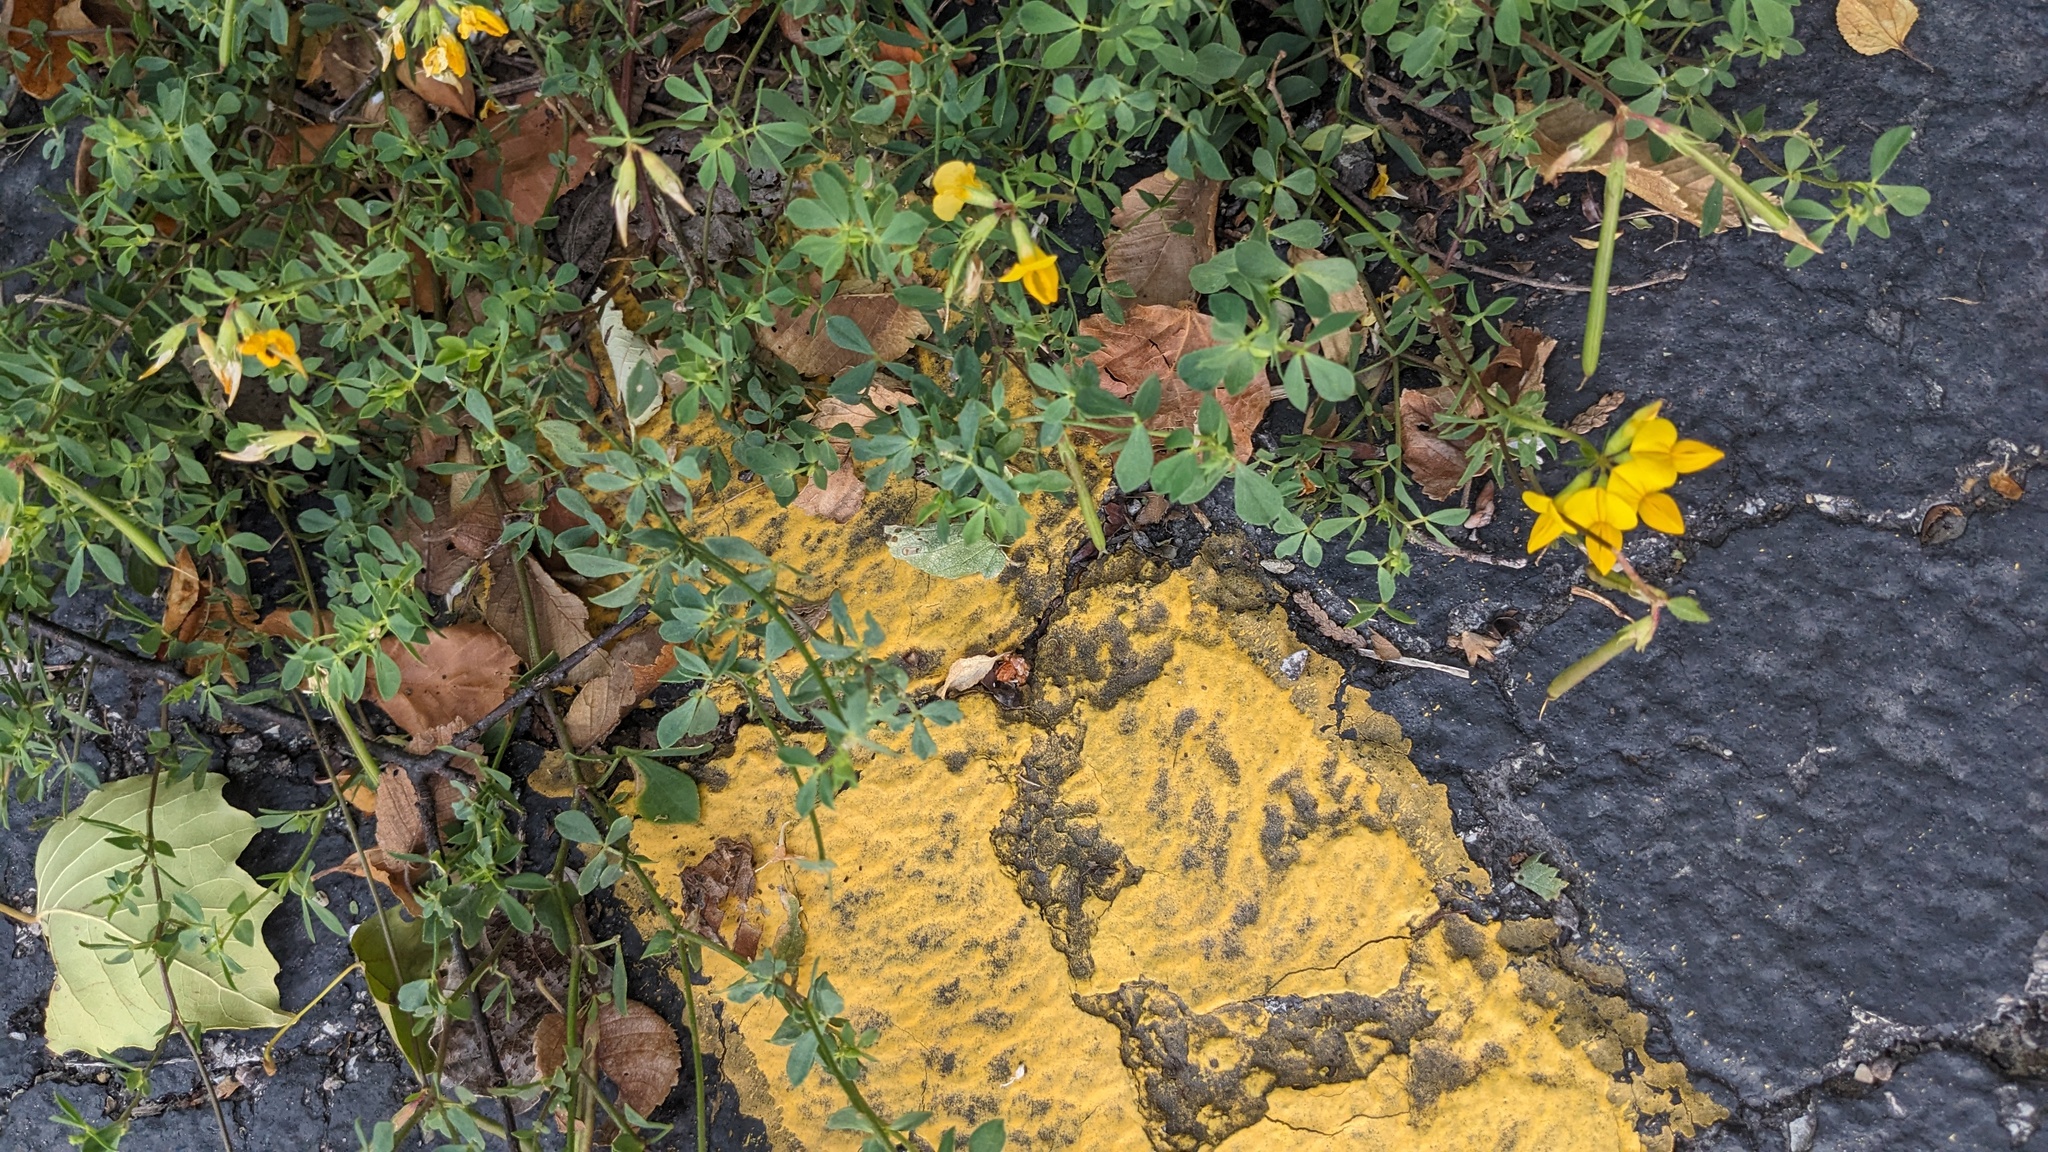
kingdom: Plantae
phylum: Tracheophyta
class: Magnoliopsida
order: Fabales
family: Fabaceae
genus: Lotus
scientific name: Lotus corniculatus
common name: Common bird's-foot-trefoil
